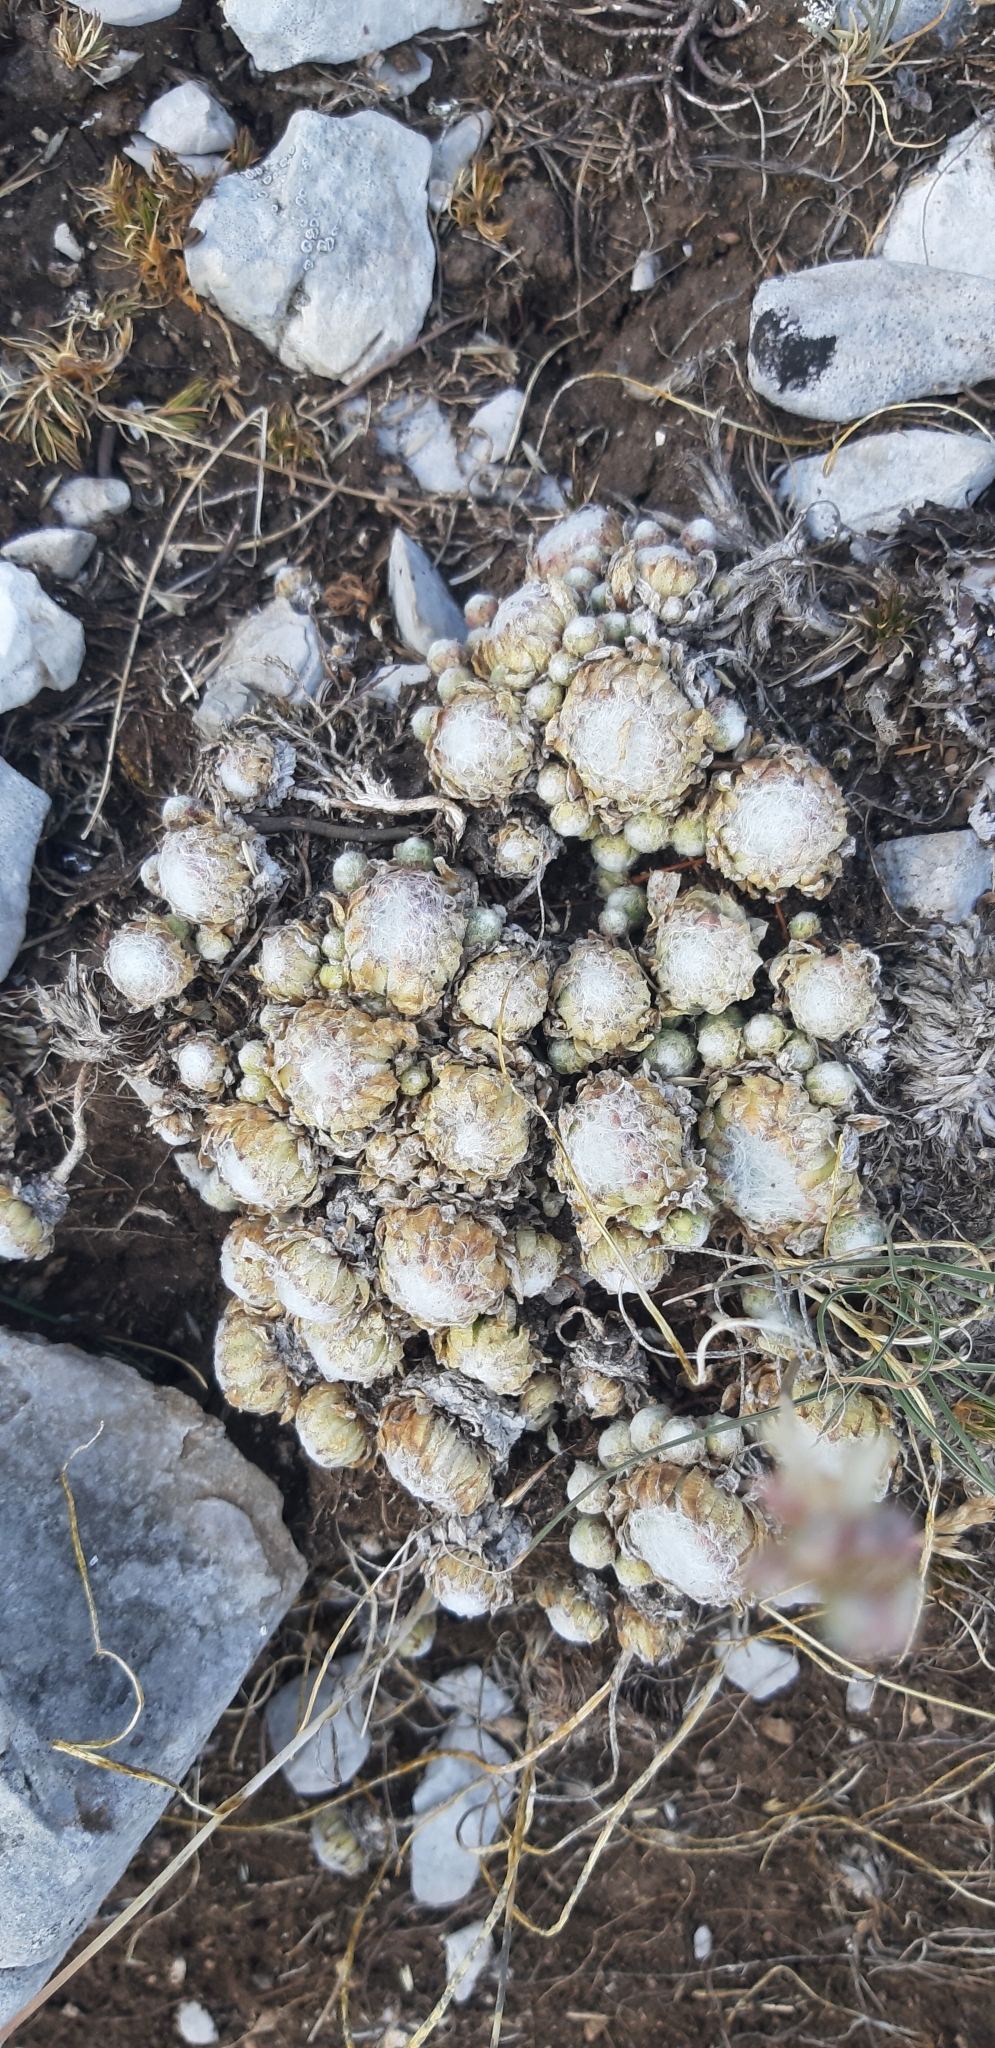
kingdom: Plantae
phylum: Tracheophyta
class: Magnoliopsida
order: Saxifragales
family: Crassulaceae
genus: Sempervivum
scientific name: Sempervivum arachnoideum
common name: Cobweb house-leek
